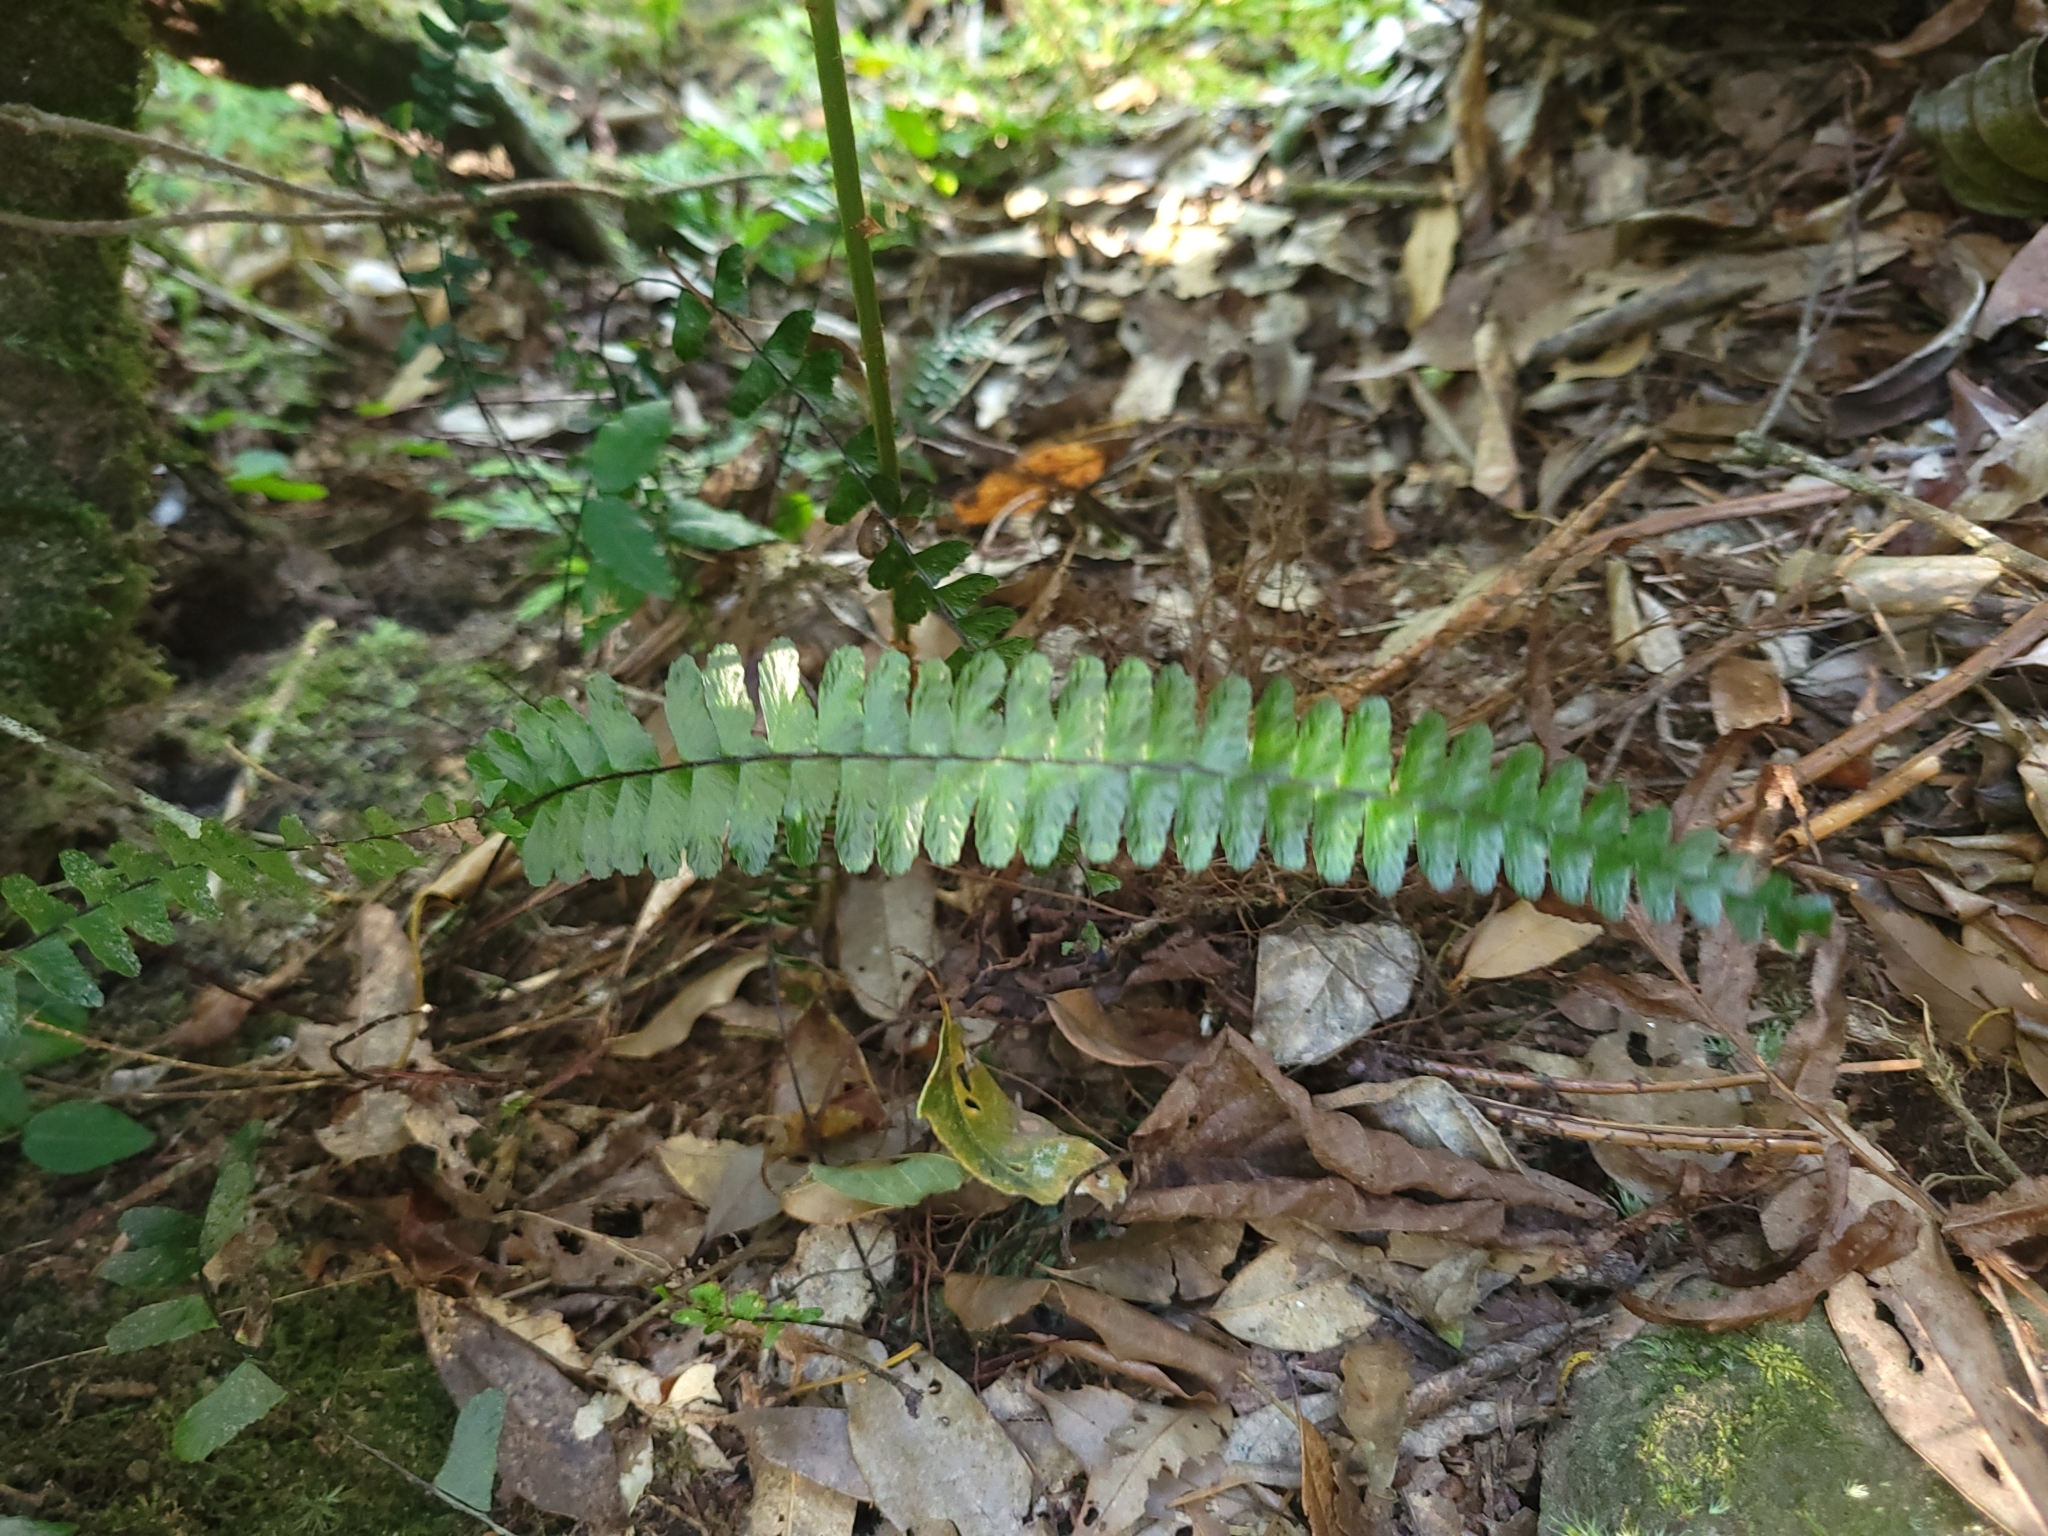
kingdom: Plantae
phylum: Tracheophyta
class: Polypodiopsida
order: Polypodiales
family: Aspleniaceae
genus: Asplenium
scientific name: Asplenium normale
